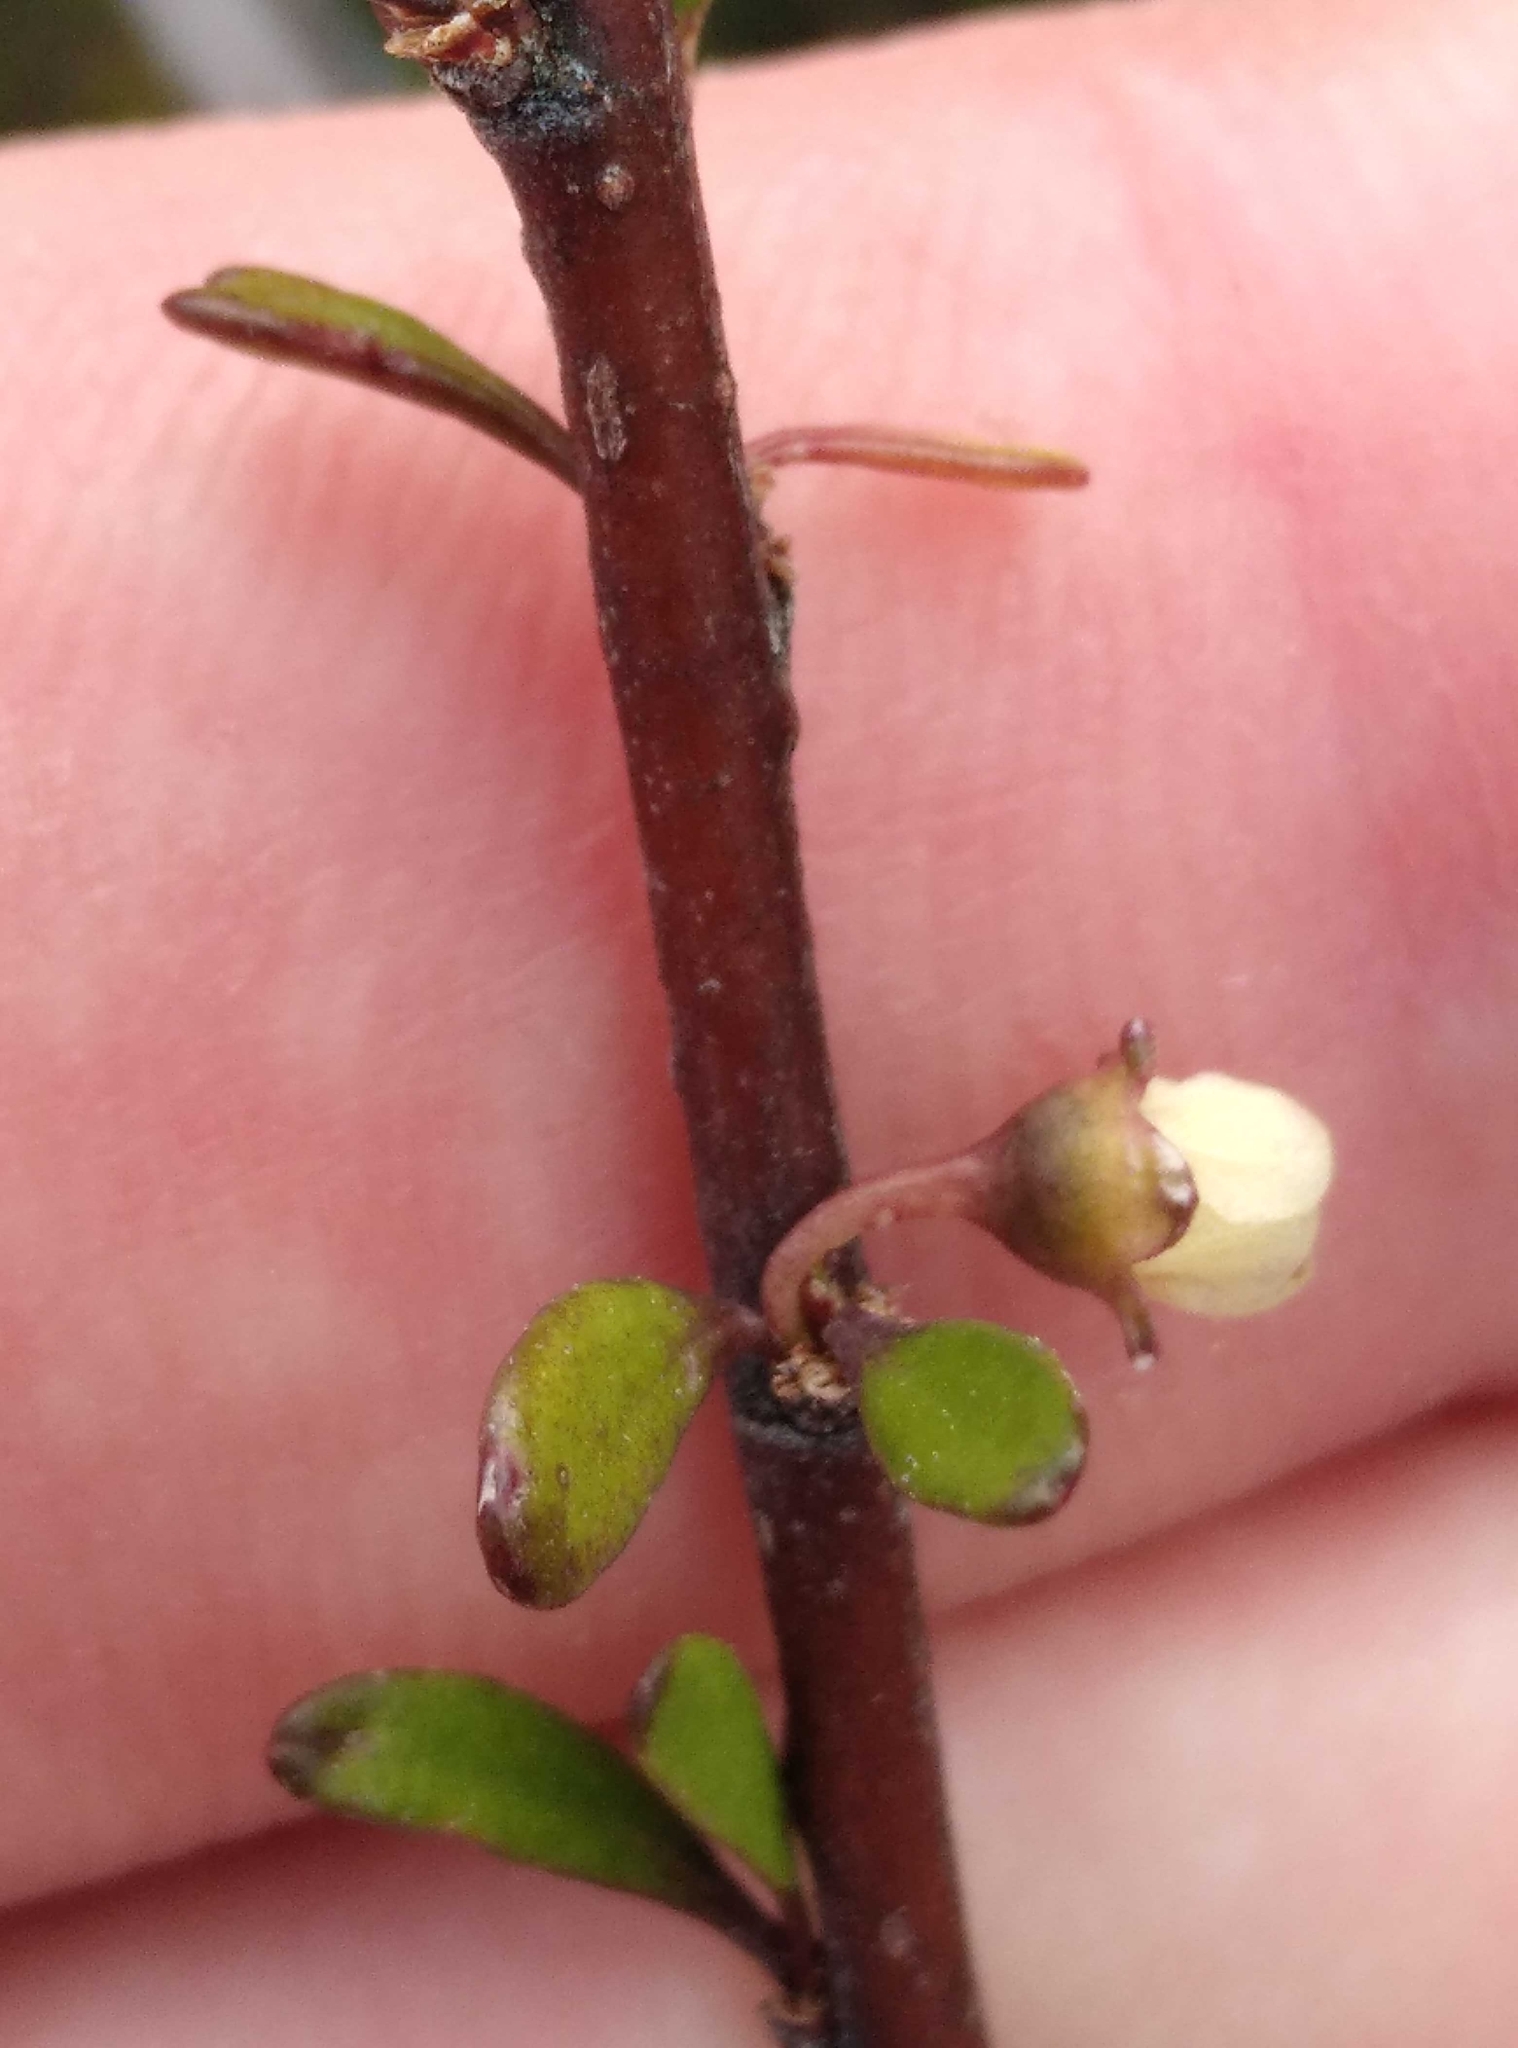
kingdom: Plantae
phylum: Tracheophyta
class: Magnoliopsida
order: Malvales
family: Malvaceae
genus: Plagianthus
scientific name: Plagianthus divaricatus
